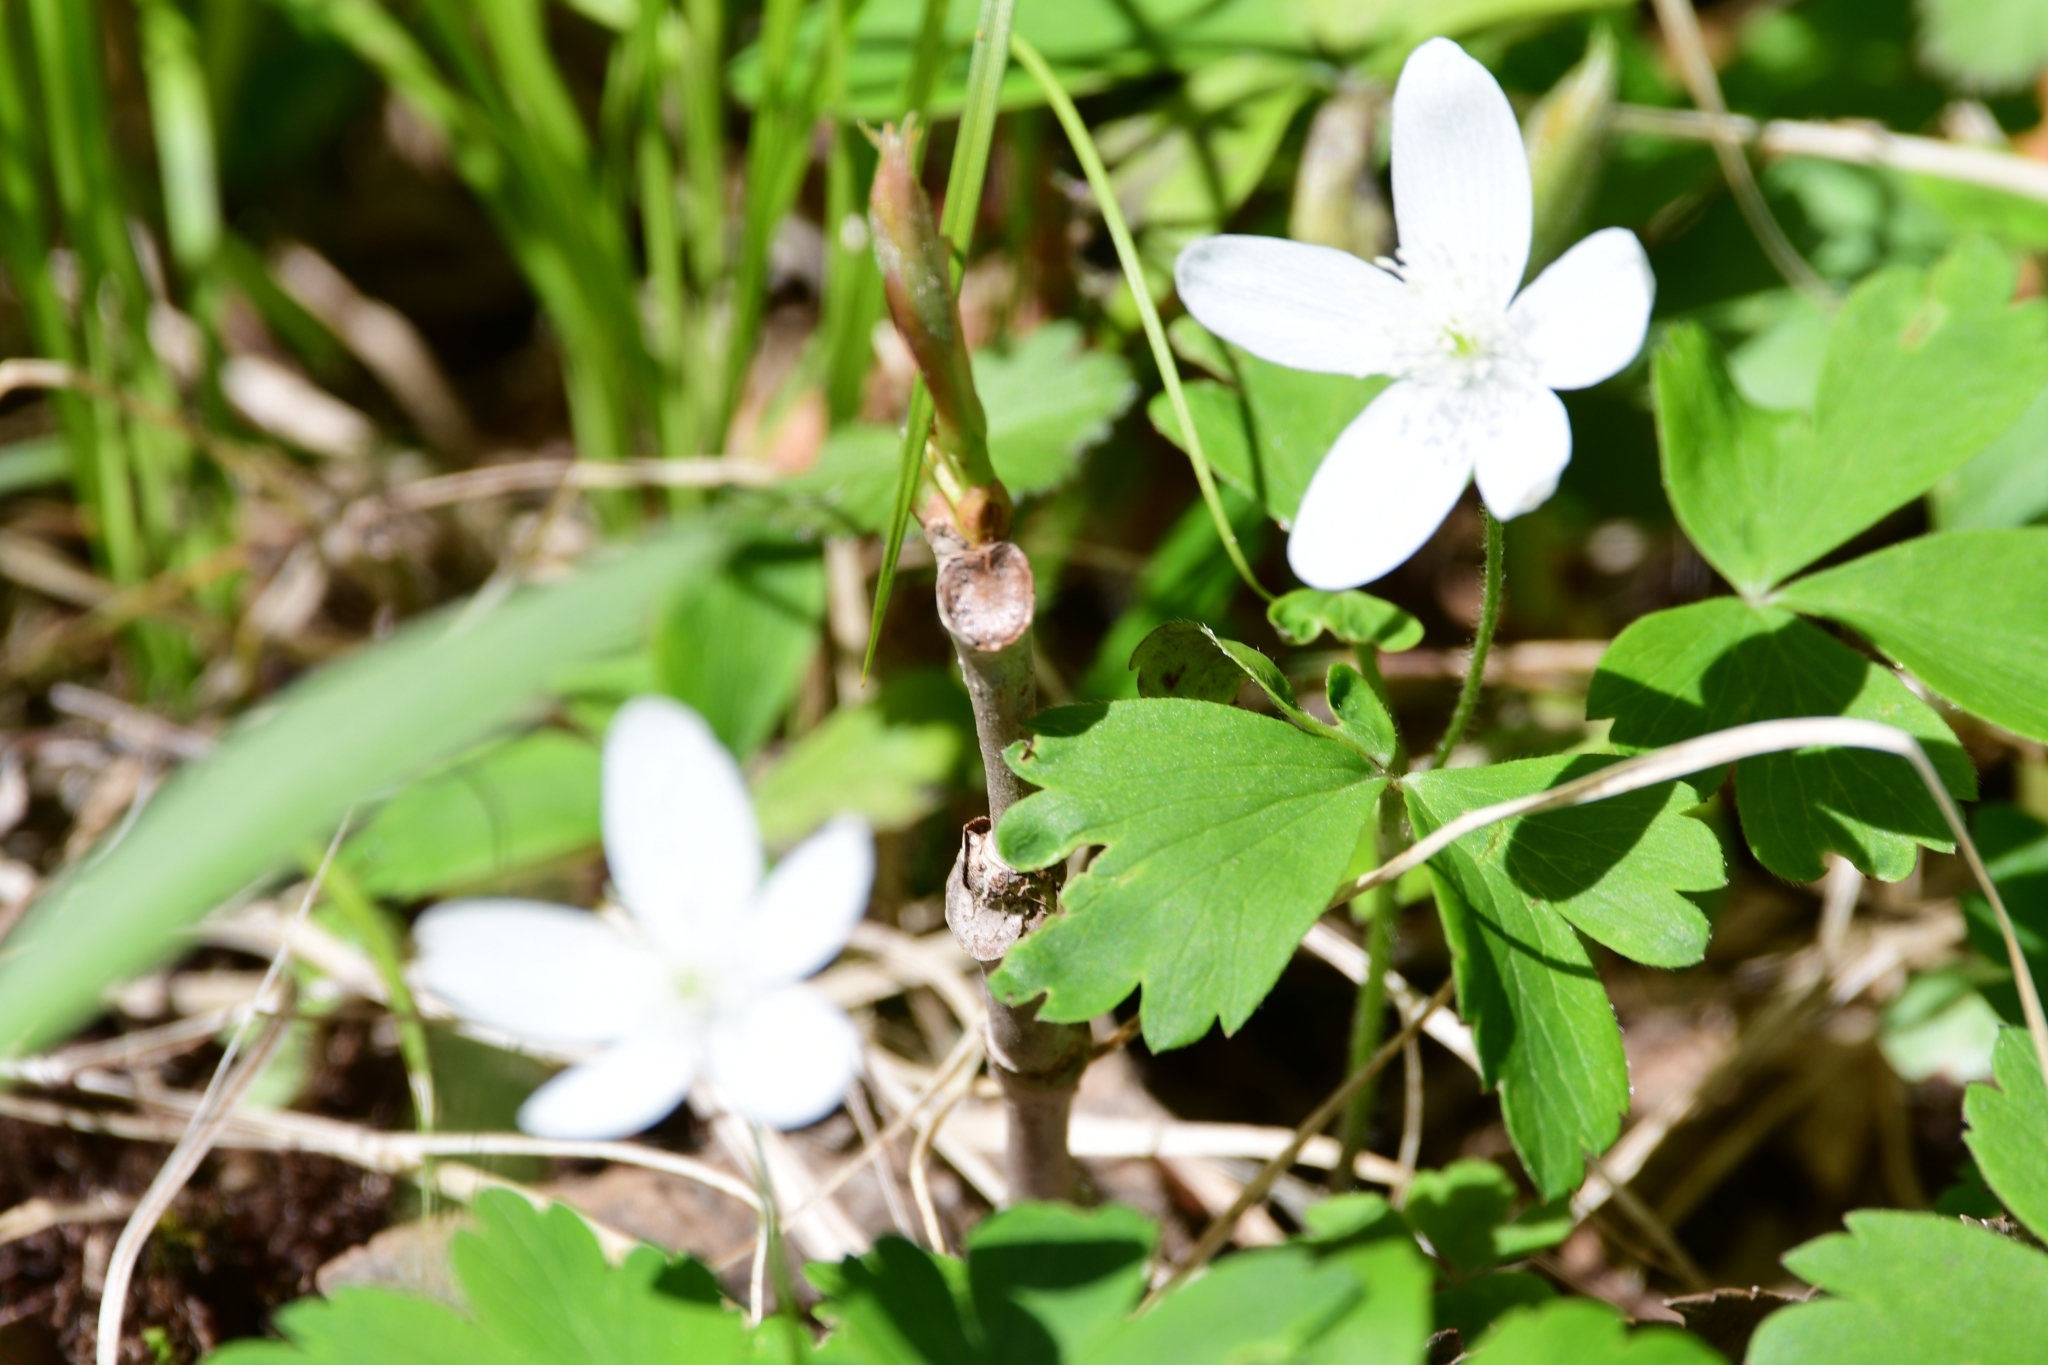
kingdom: Plantae
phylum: Tracheophyta
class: Magnoliopsida
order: Ranunculales
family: Ranunculaceae
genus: Anemone
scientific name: Anemone quinquefolia
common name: Wood anemone
